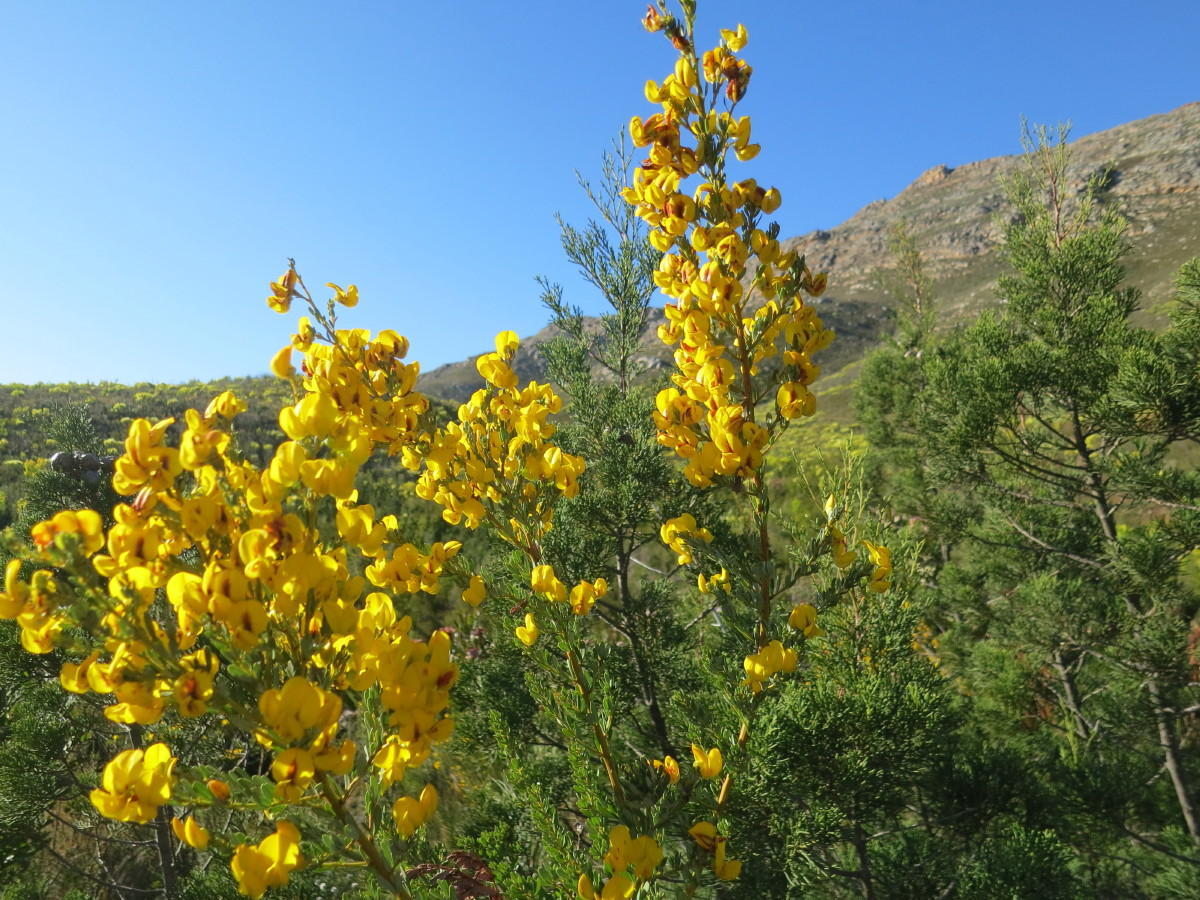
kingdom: Plantae
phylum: Tracheophyta
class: Magnoliopsida
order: Fabales
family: Fabaceae
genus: Cyclopia
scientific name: Cyclopia subternata
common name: Honeybush tea
